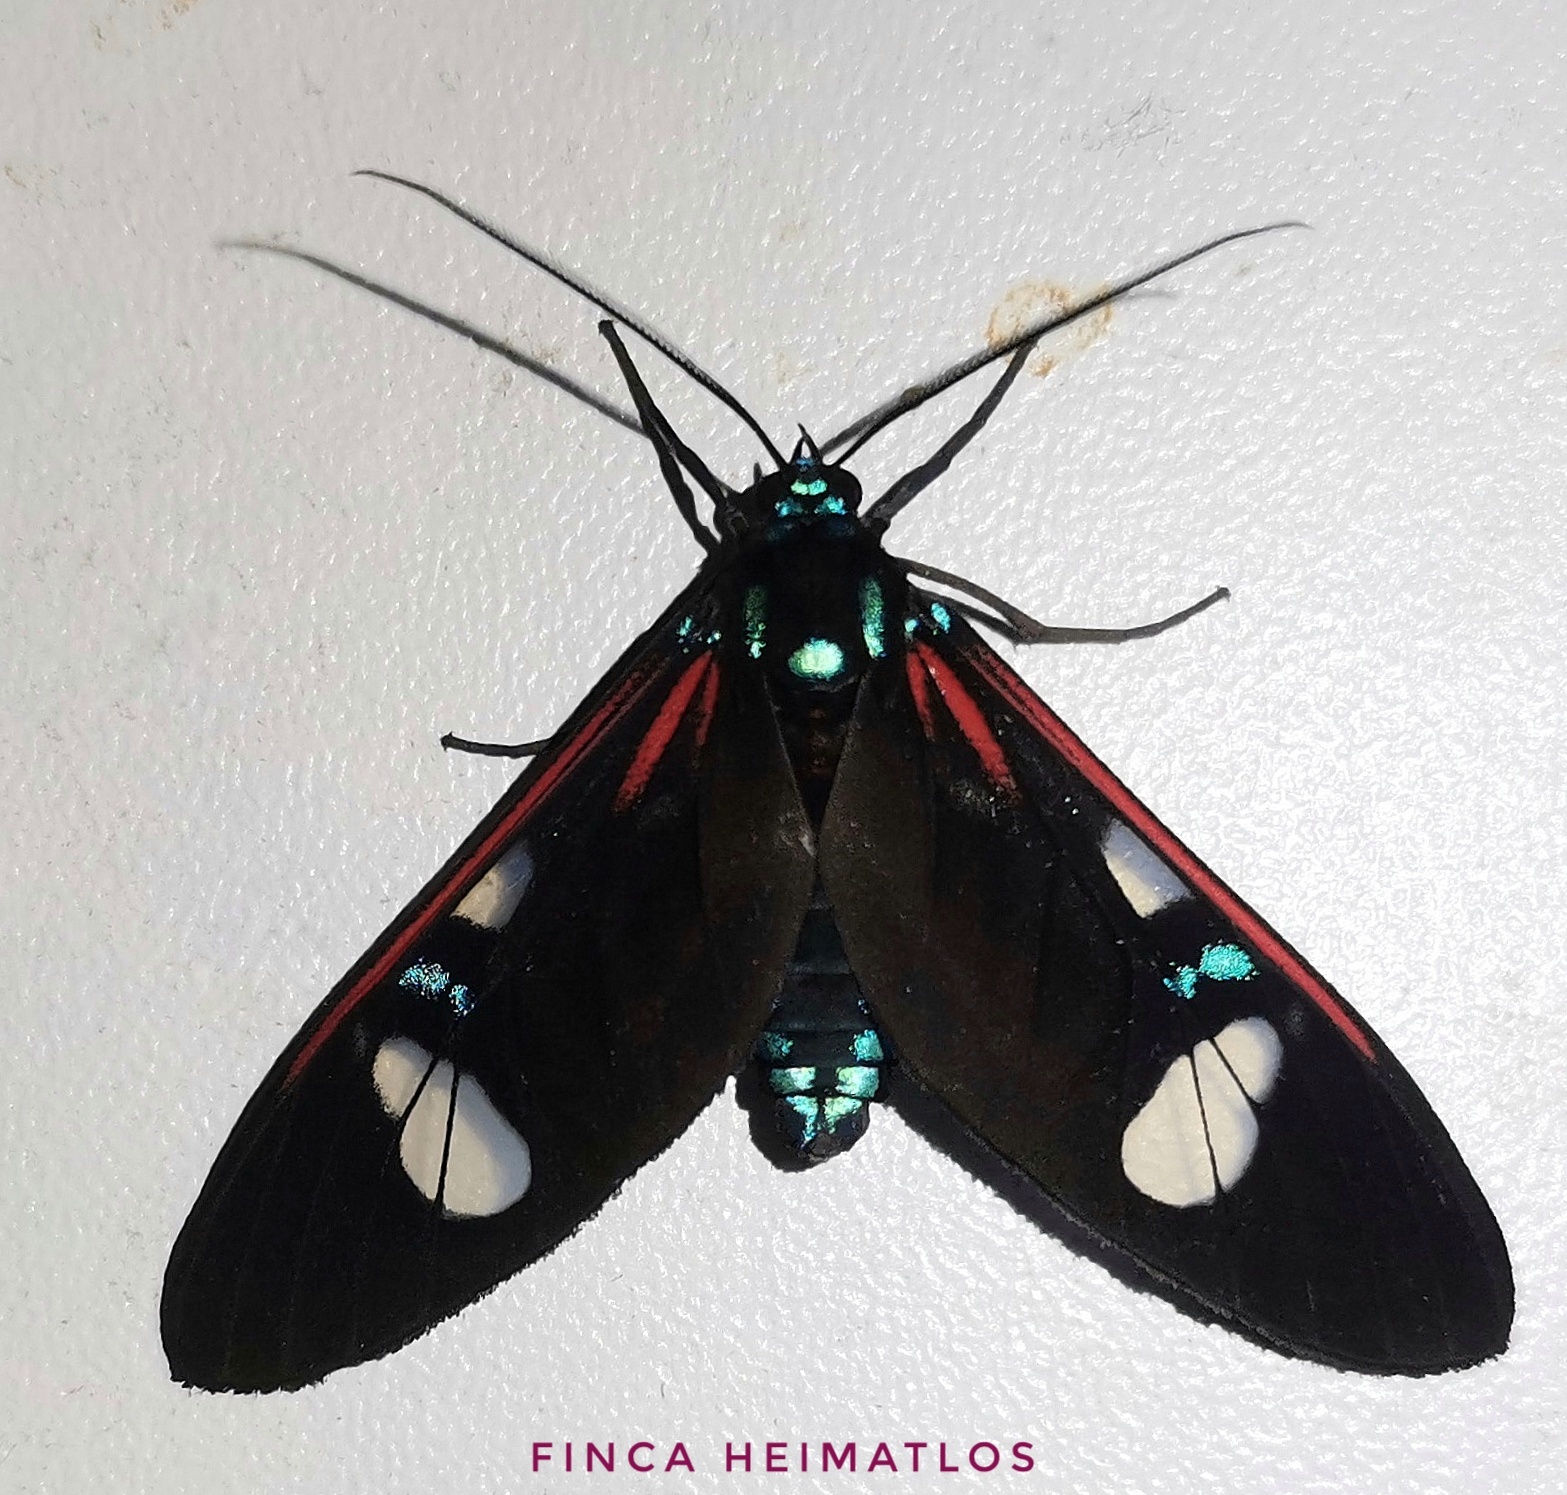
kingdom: Animalia
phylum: Arthropoda
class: Insecta
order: Lepidoptera
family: Erebidae
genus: Euclera
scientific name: Euclera meones
